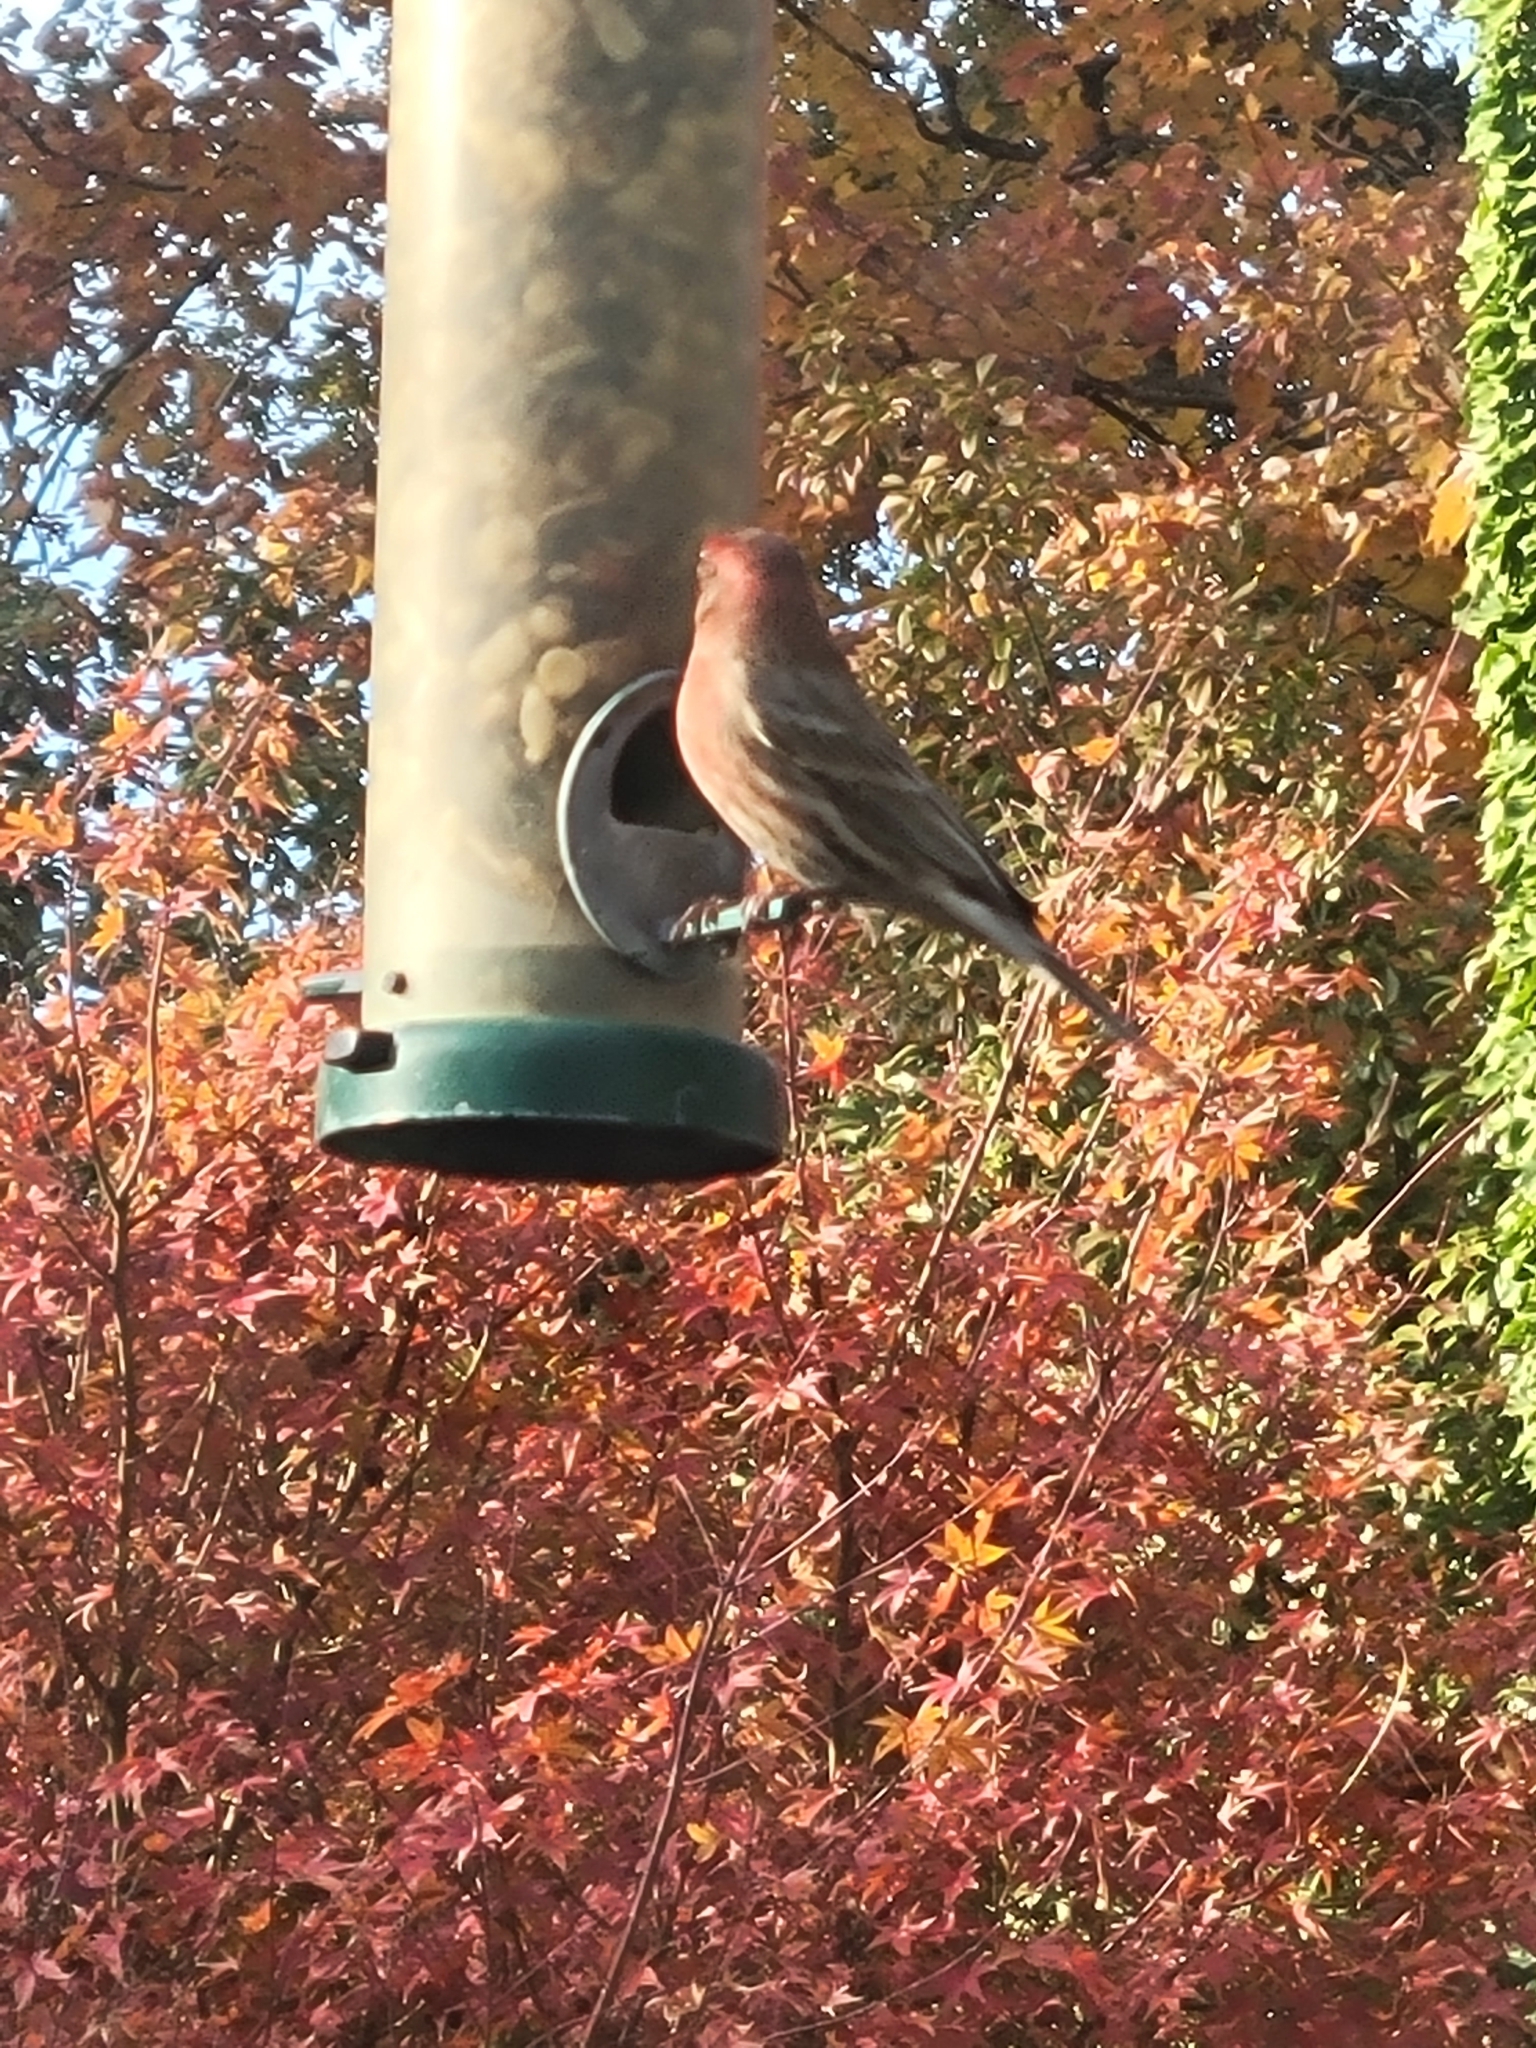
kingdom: Animalia
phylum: Chordata
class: Aves
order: Passeriformes
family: Fringillidae
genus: Haemorhous
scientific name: Haemorhous mexicanus
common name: House finch
